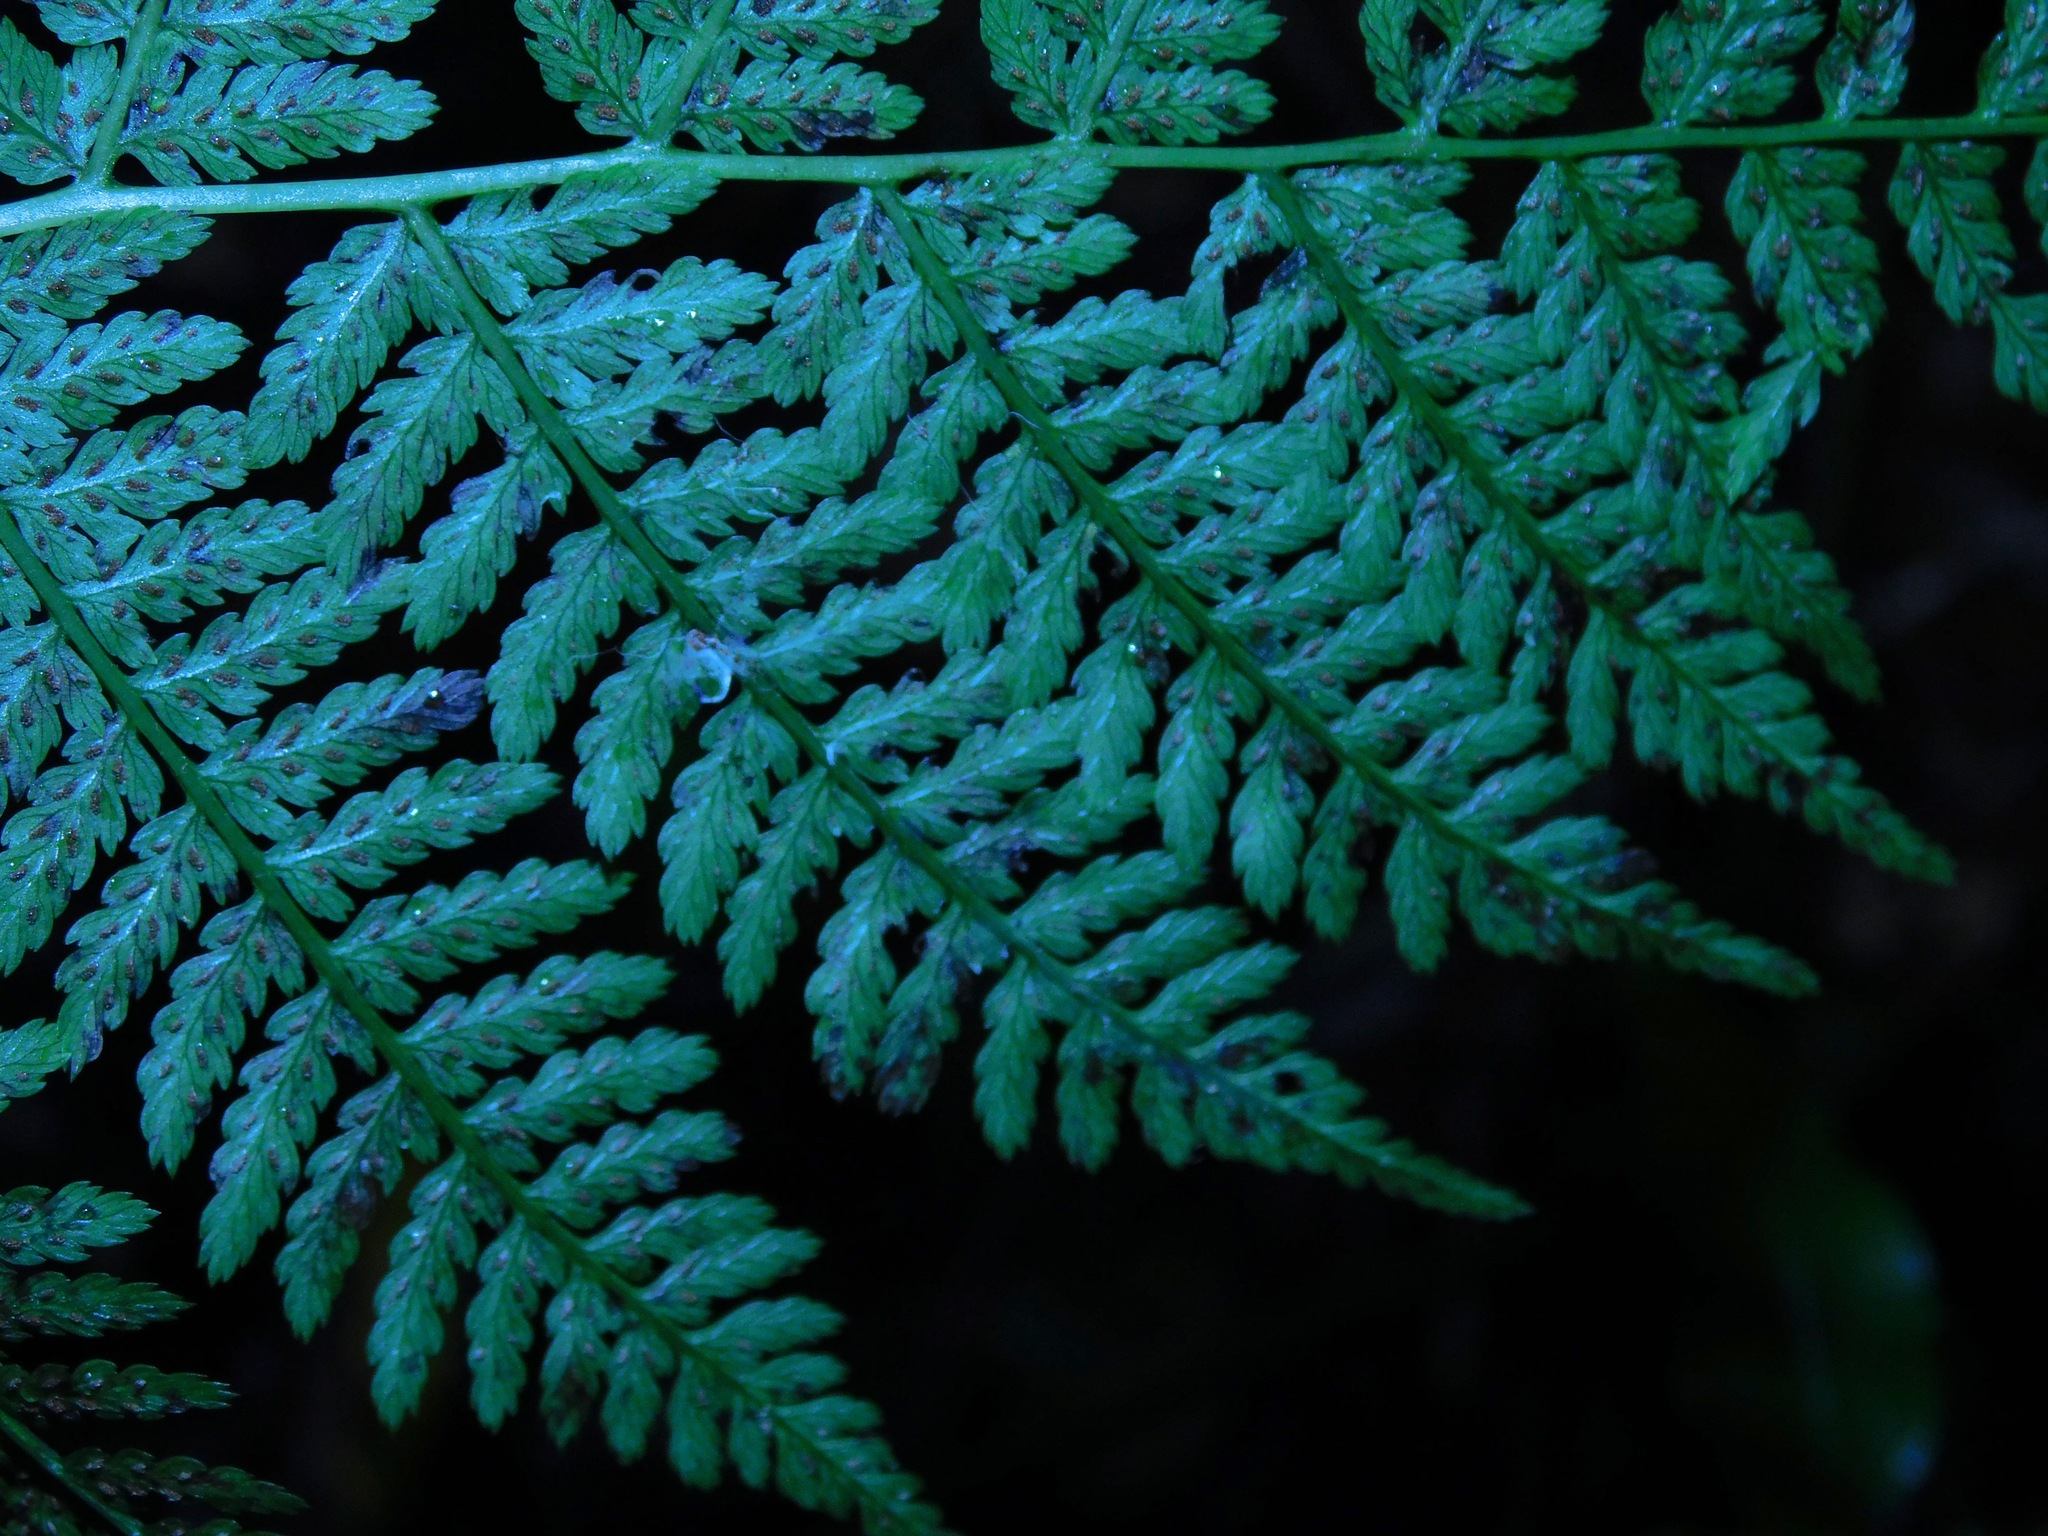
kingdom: Plantae
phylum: Tracheophyta
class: Polypodiopsida
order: Polypodiales
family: Athyriaceae
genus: Athyrium
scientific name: Athyrium asplenioides
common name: Southern lady fern
